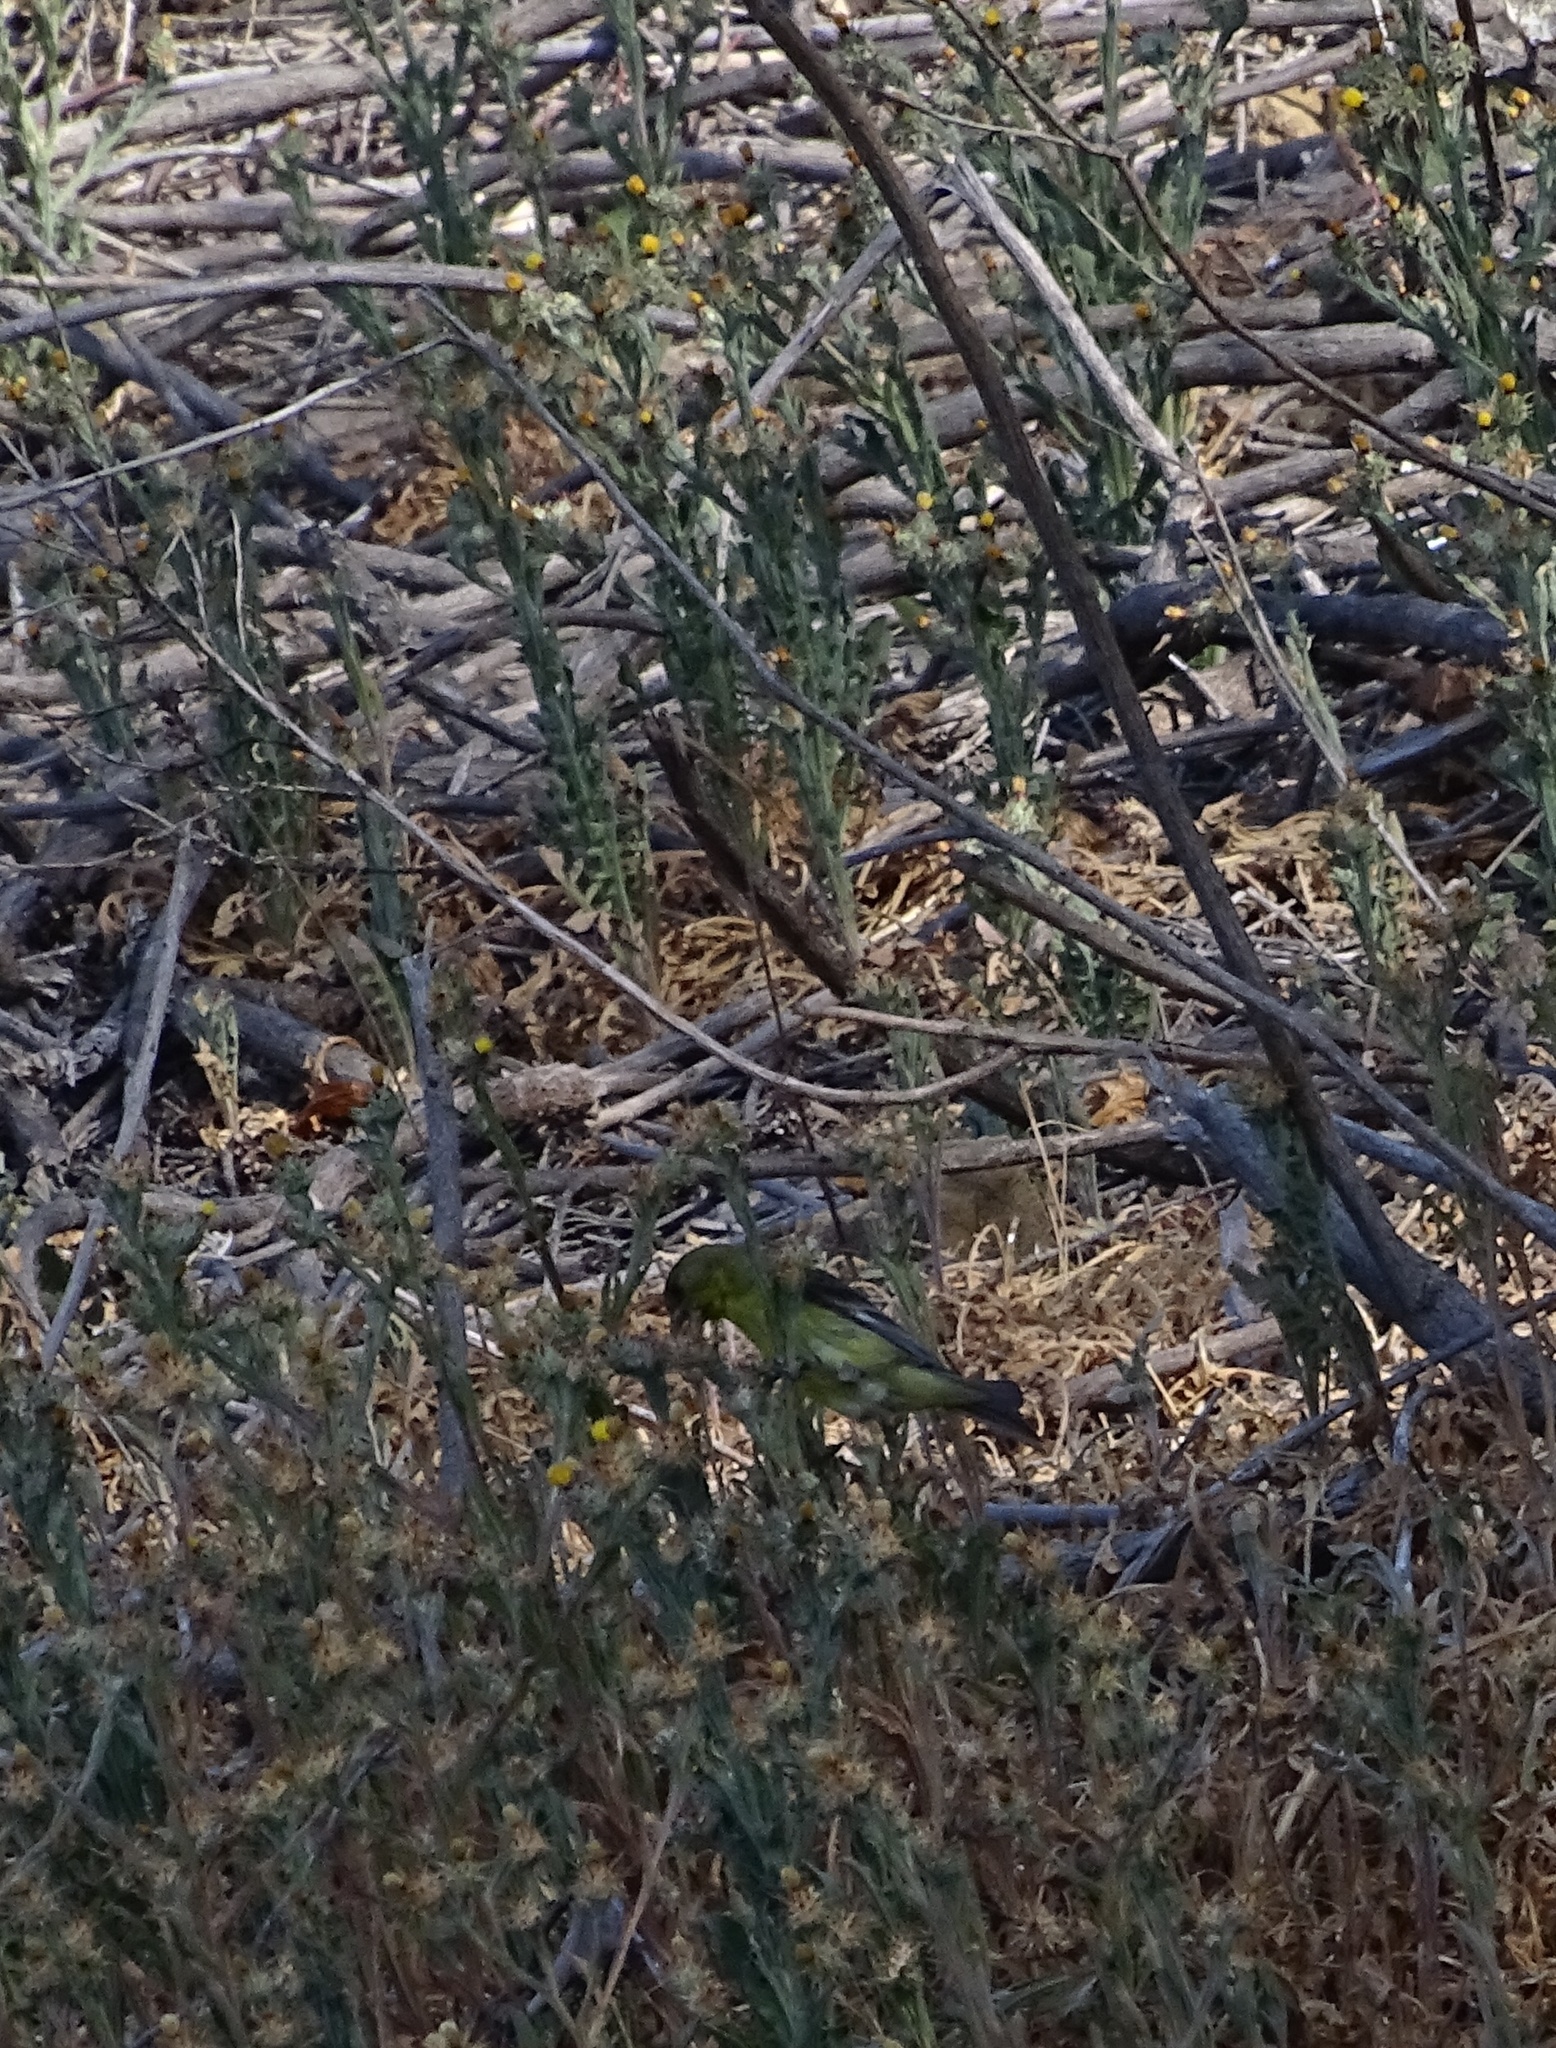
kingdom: Animalia
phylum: Chordata
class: Aves
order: Passeriformes
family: Fringillidae
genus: Spinus
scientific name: Spinus psaltria
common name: Lesser goldfinch
